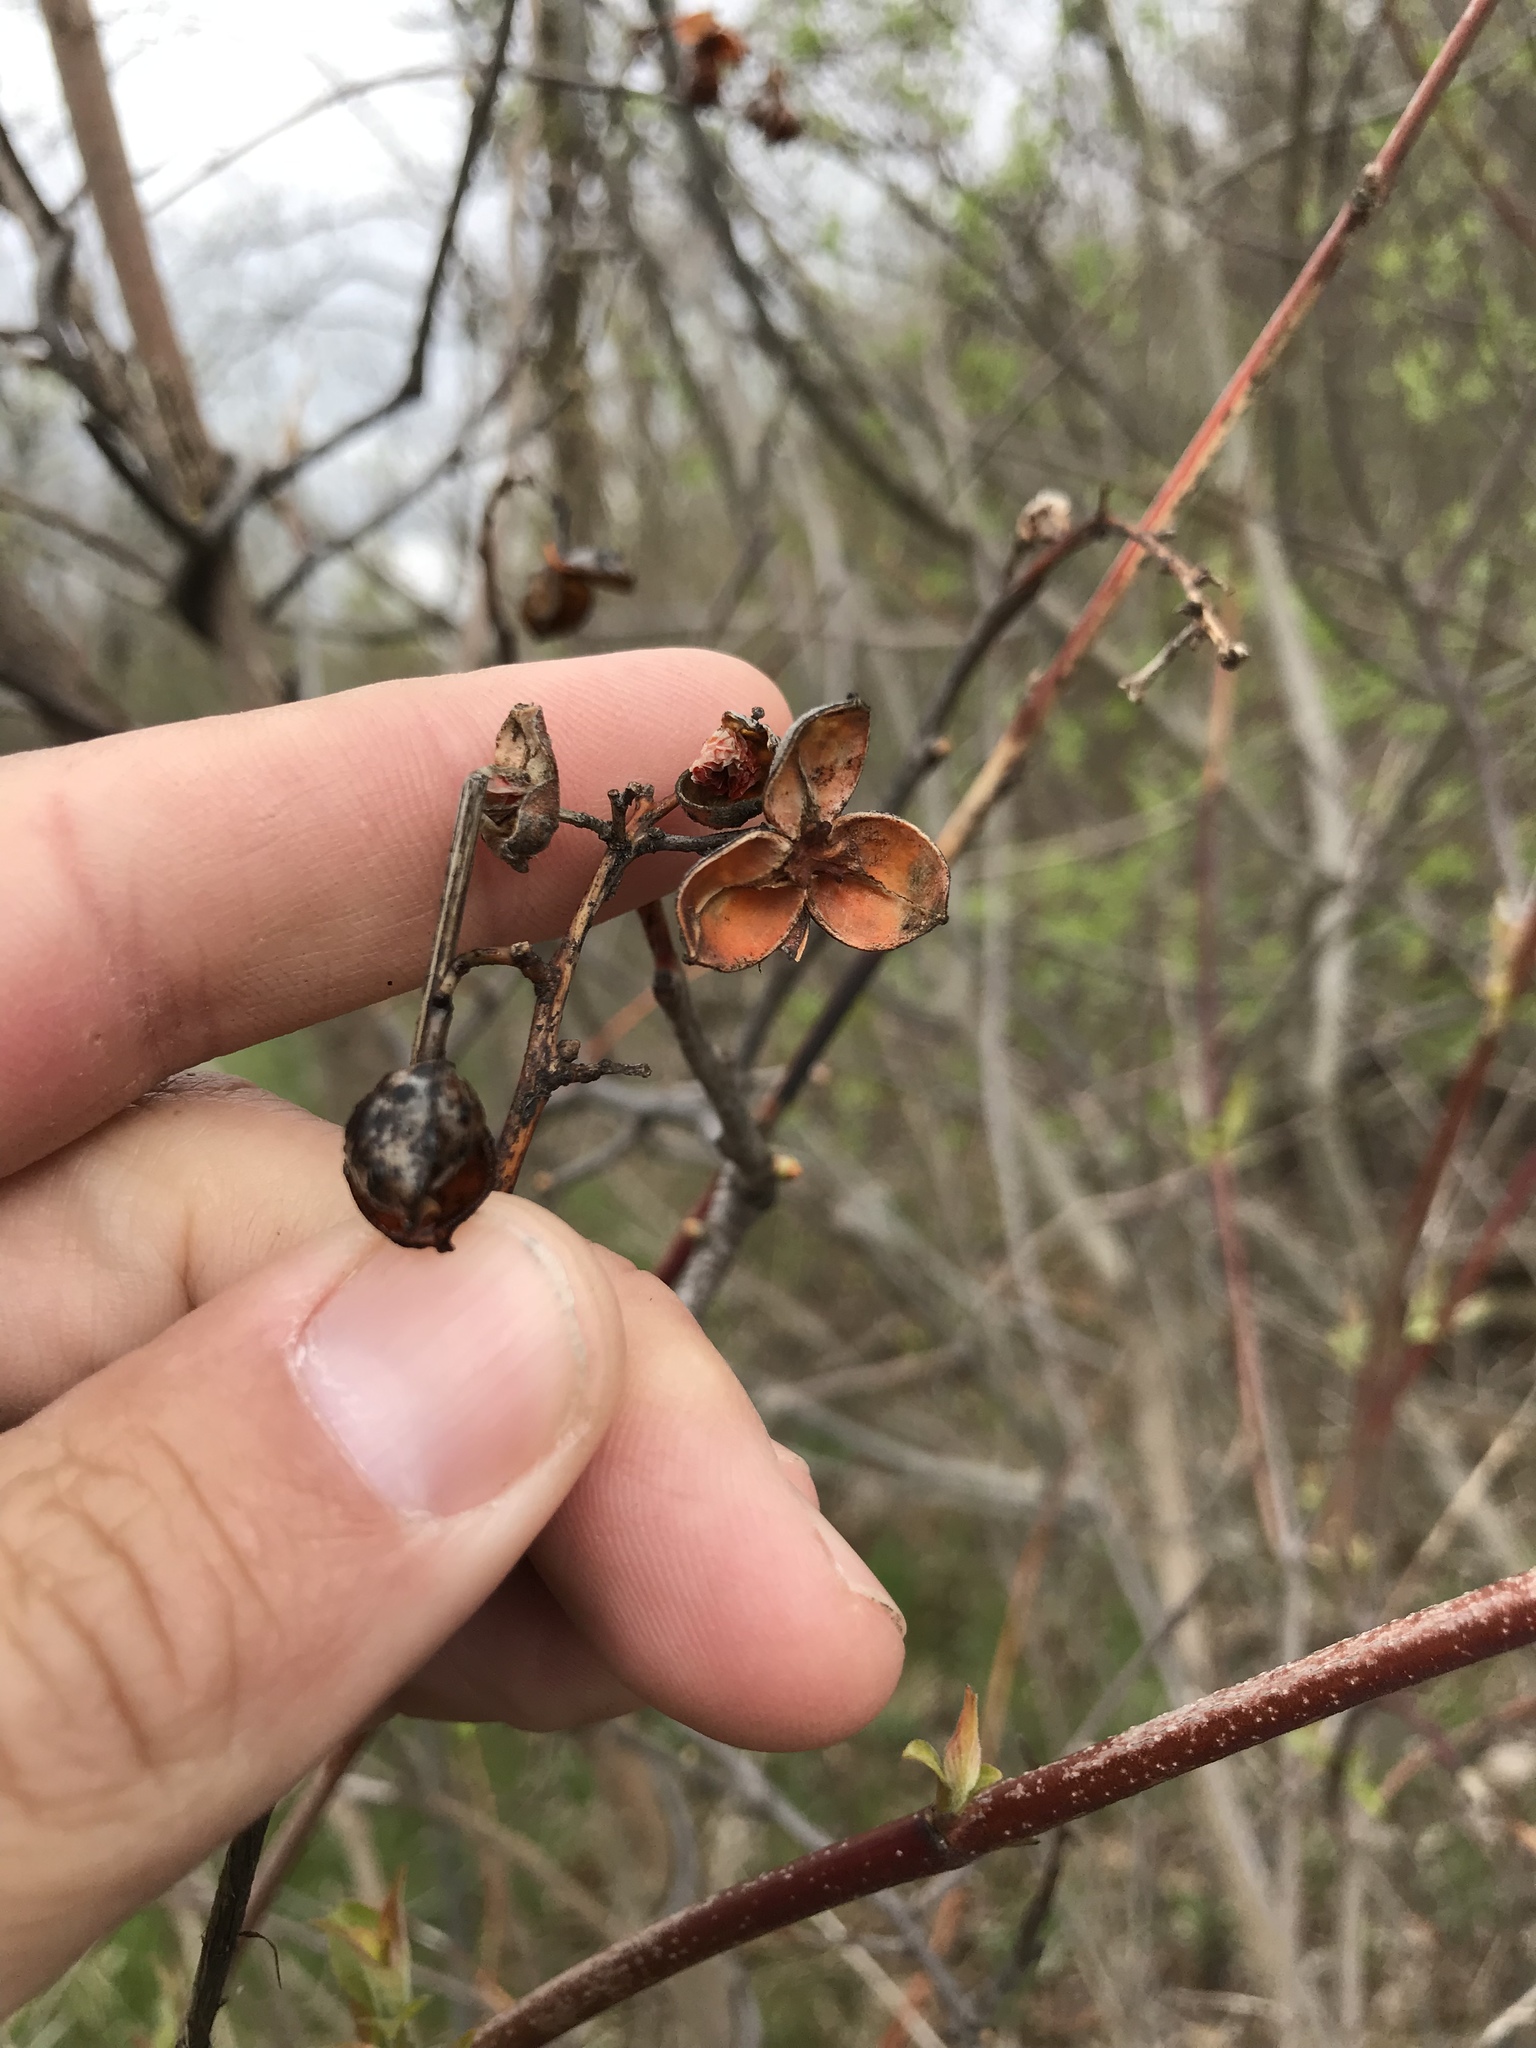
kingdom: Plantae
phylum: Tracheophyta
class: Magnoliopsida
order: Celastrales
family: Celastraceae
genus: Celastrus
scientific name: Celastrus scandens
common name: American bittersweet
